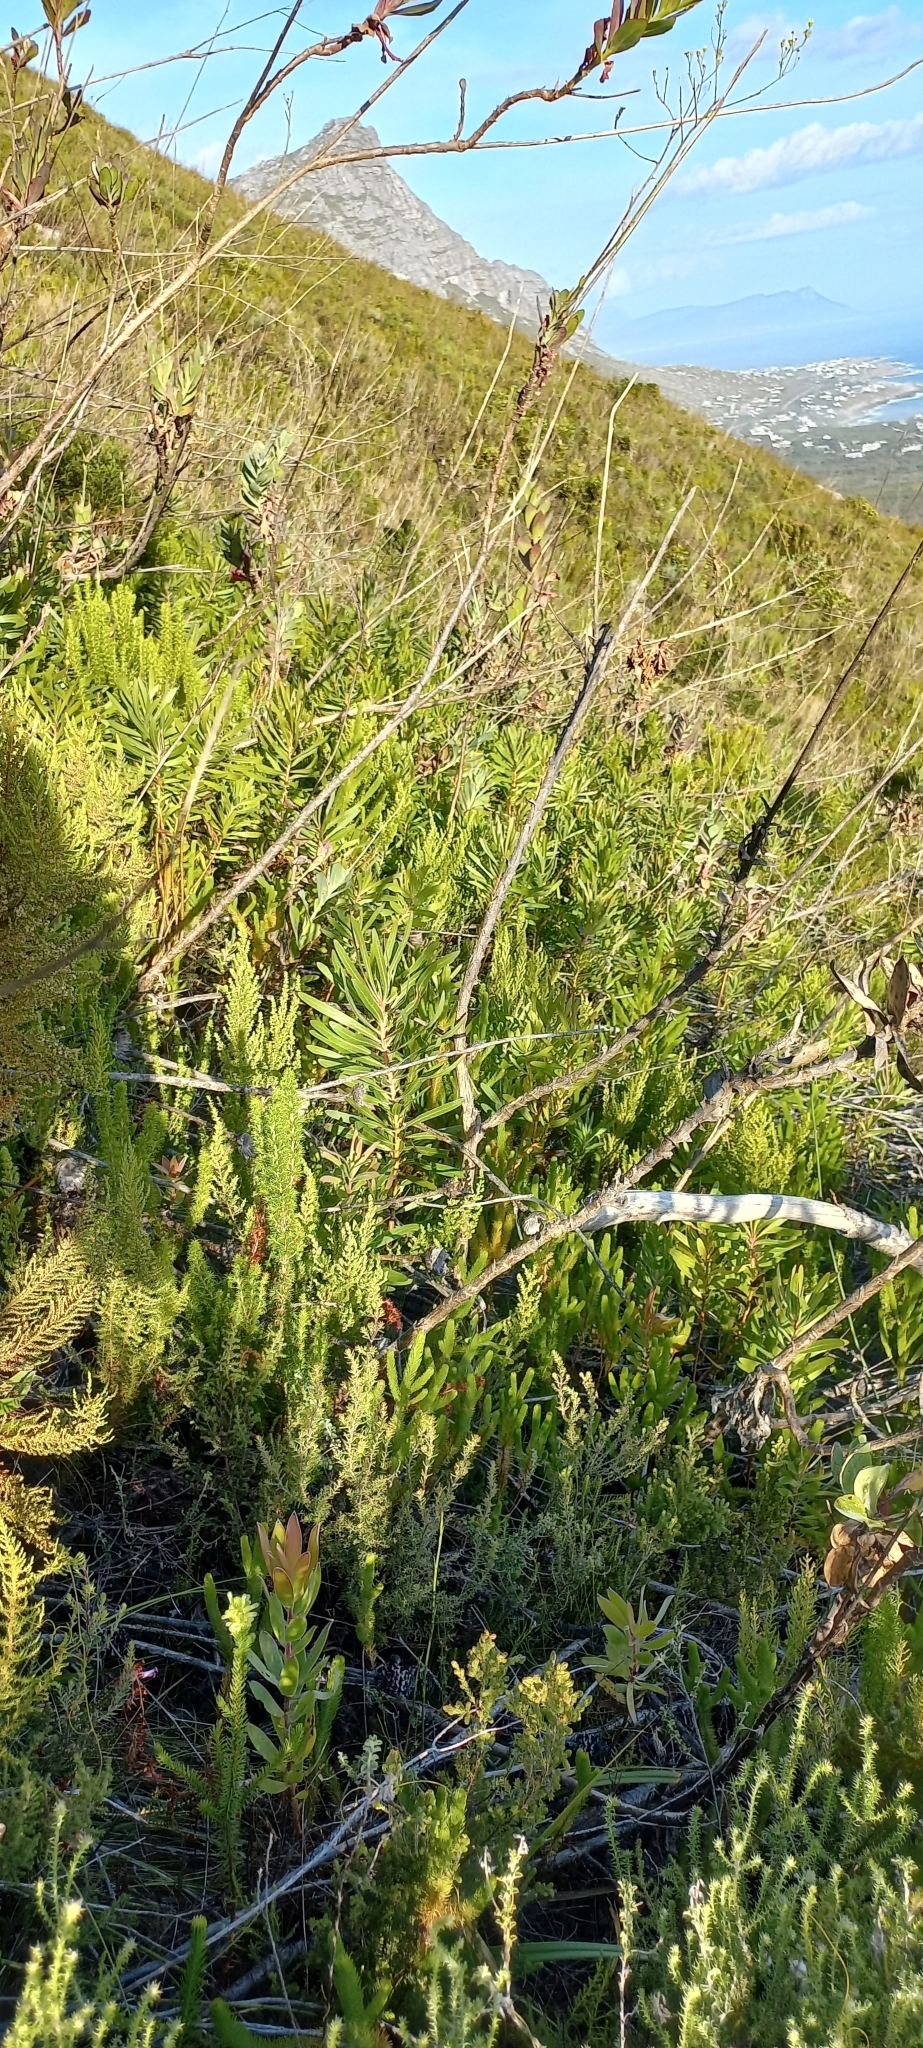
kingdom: Plantae
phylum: Tracheophyta
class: Magnoliopsida
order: Proteales
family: Proteaceae
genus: Protea
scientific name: Protea lepidocarpodendron
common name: Black-bearded protea
